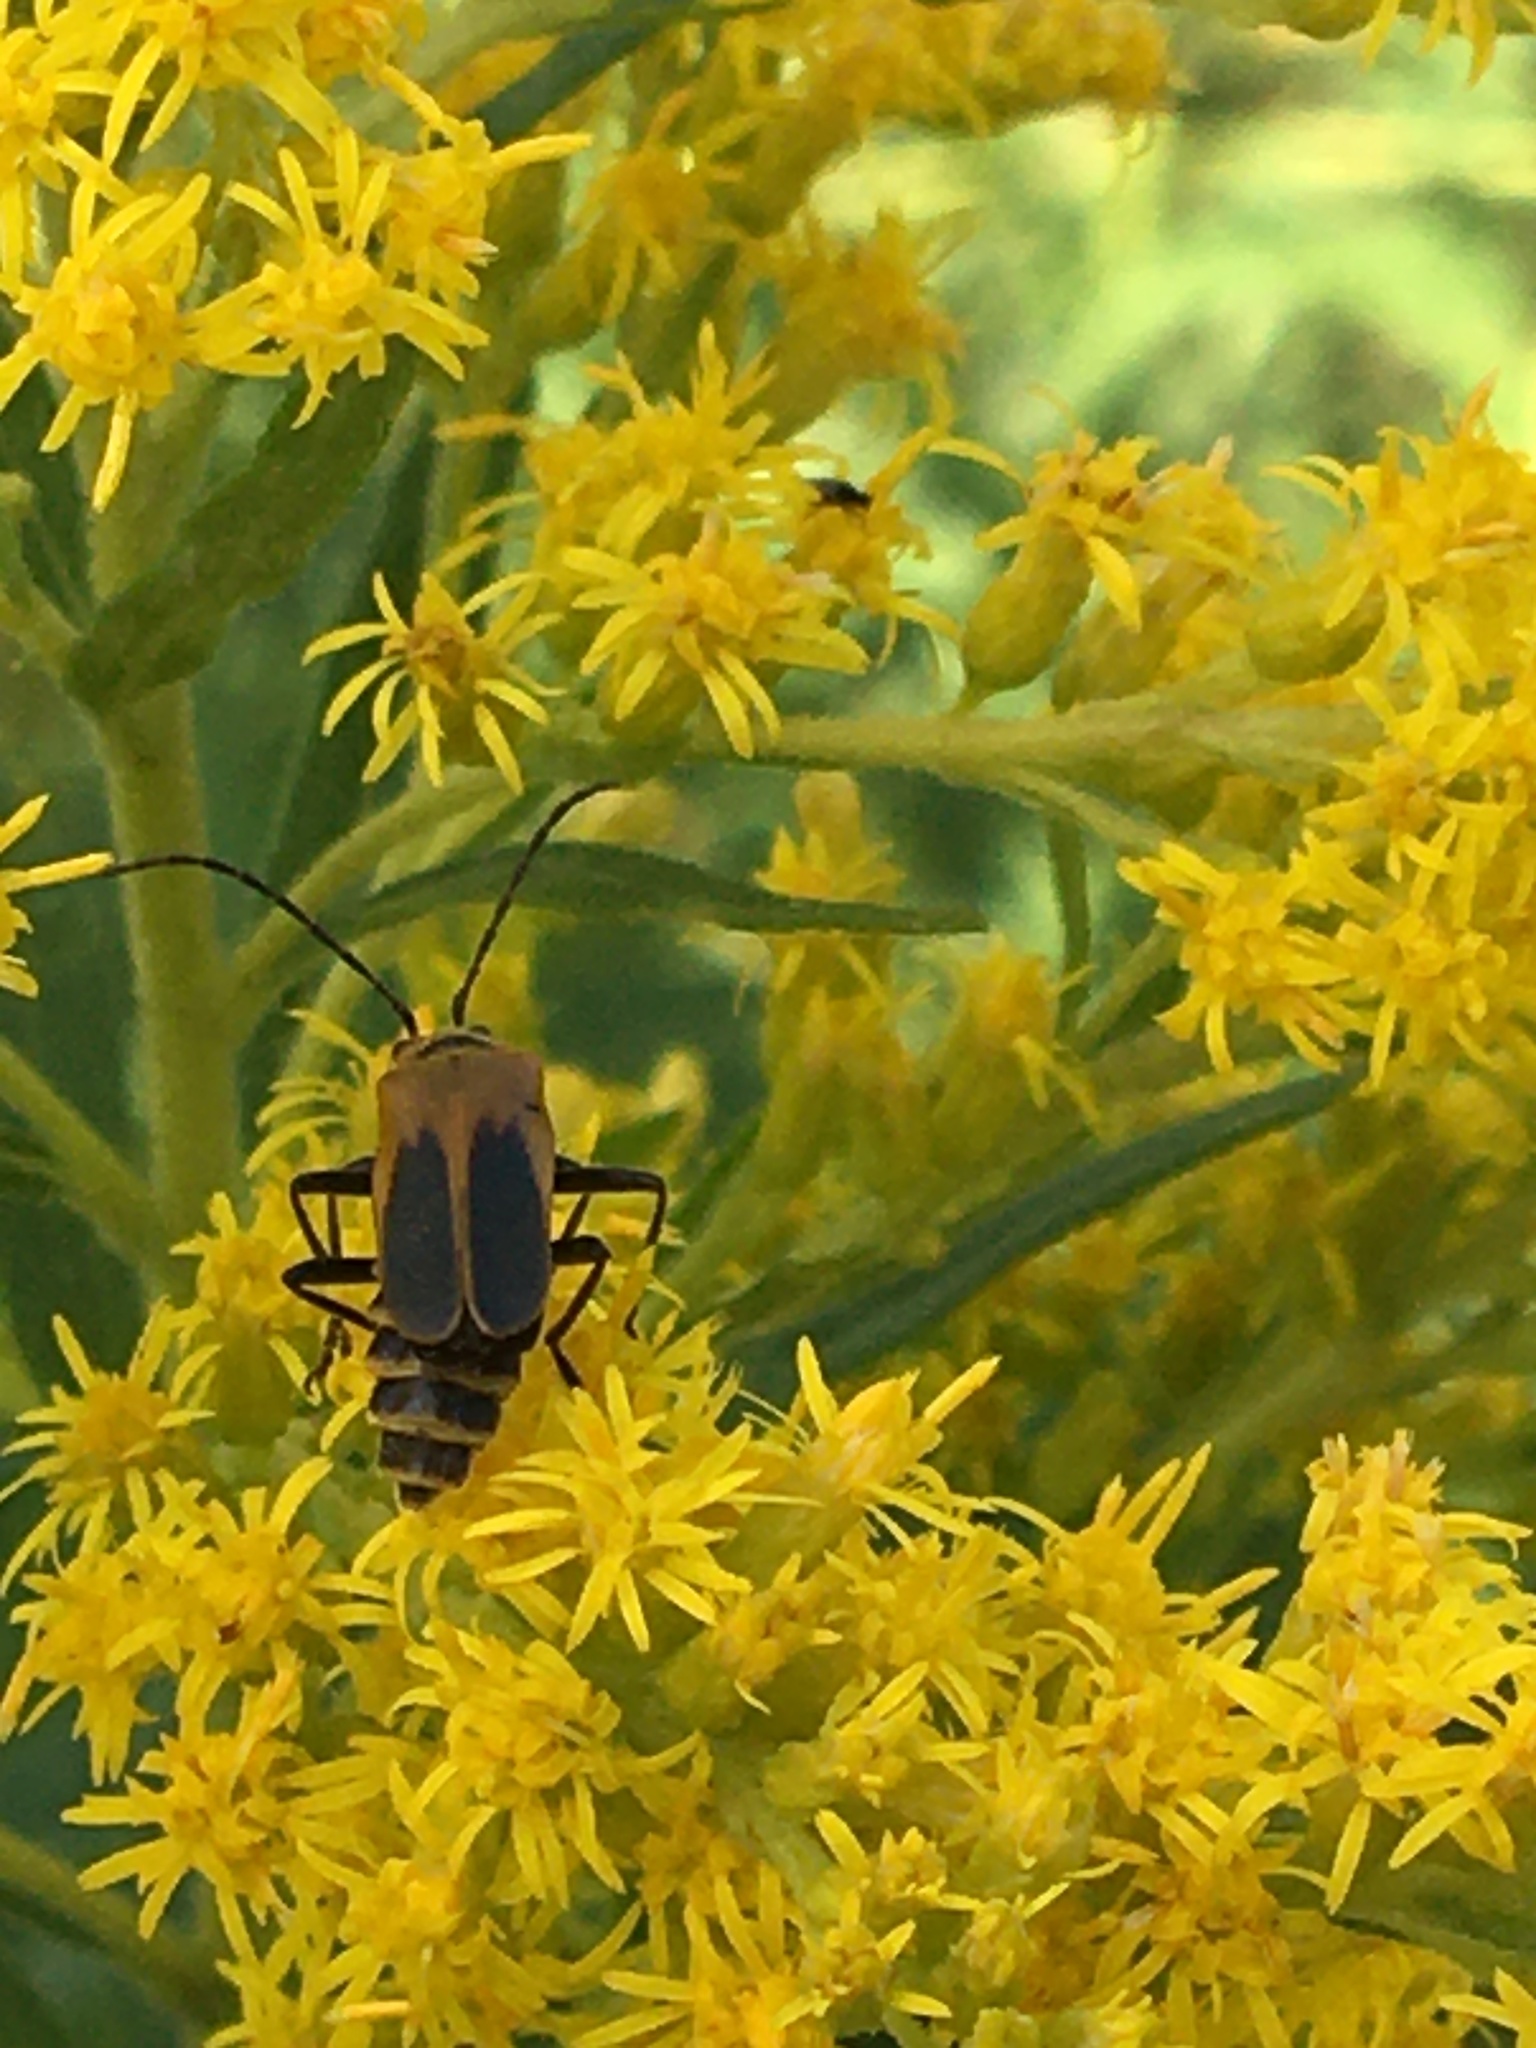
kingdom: Animalia
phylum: Arthropoda
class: Insecta
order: Coleoptera
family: Cantharidae
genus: Chauliognathus
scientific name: Chauliognathus pensylvanicus
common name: Goldenrod soldier beetle
